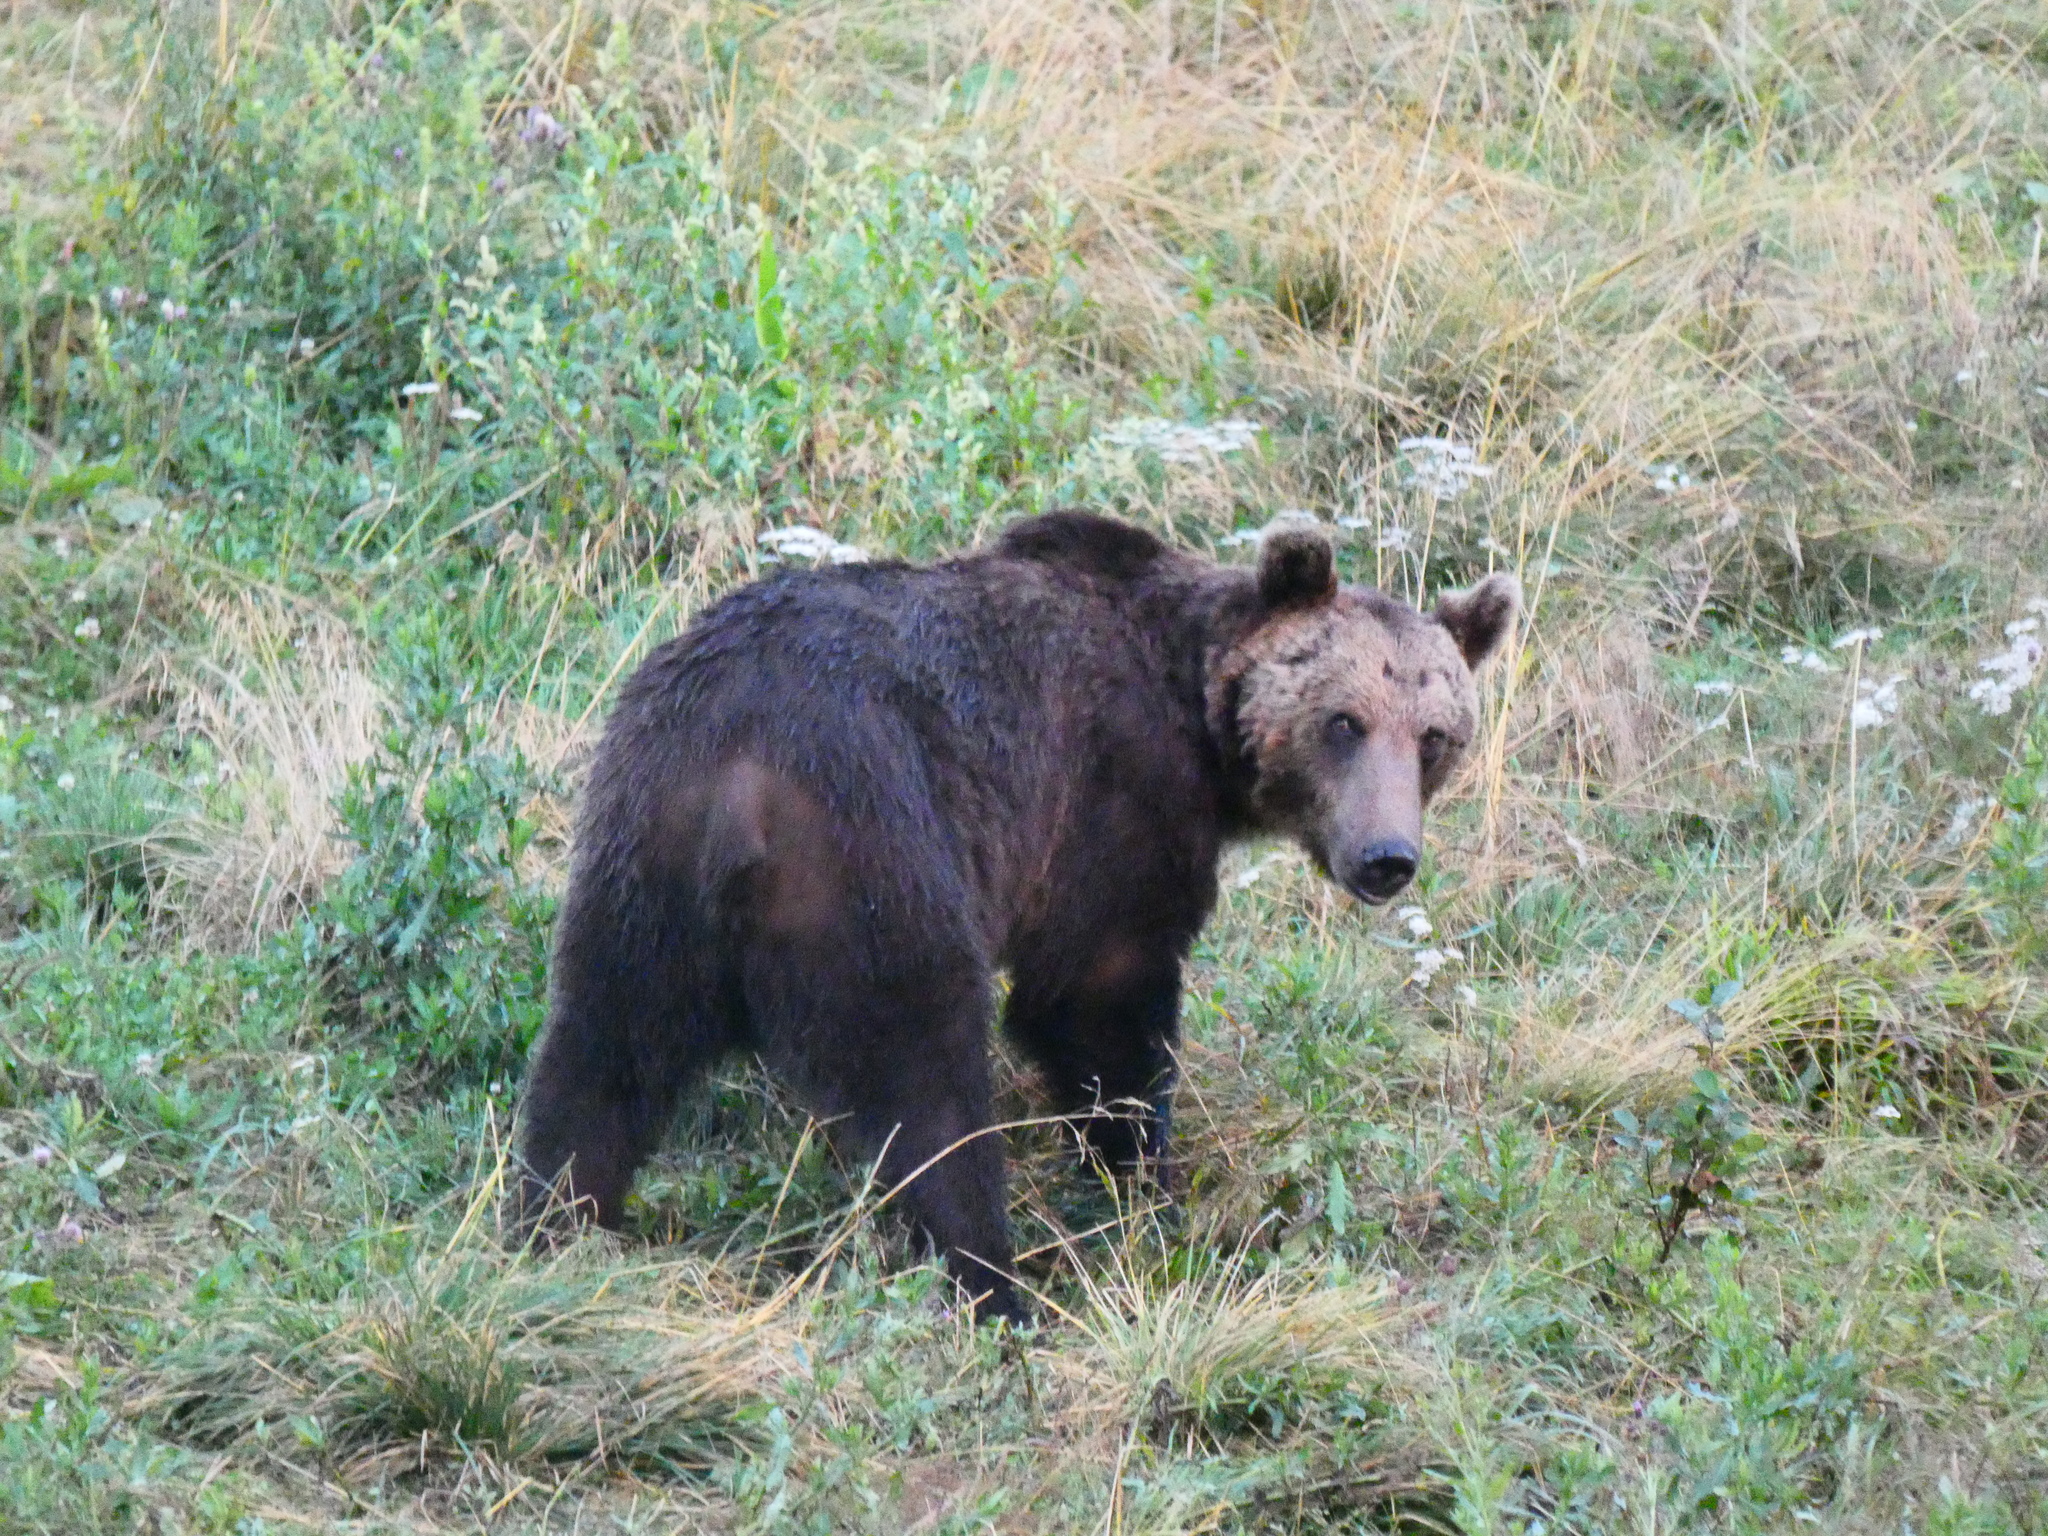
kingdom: Animalia
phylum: Chordata
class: Mammalia
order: Carnivora
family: Ursidae
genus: Ursus
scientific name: Ursus arctos
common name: Brown bear
